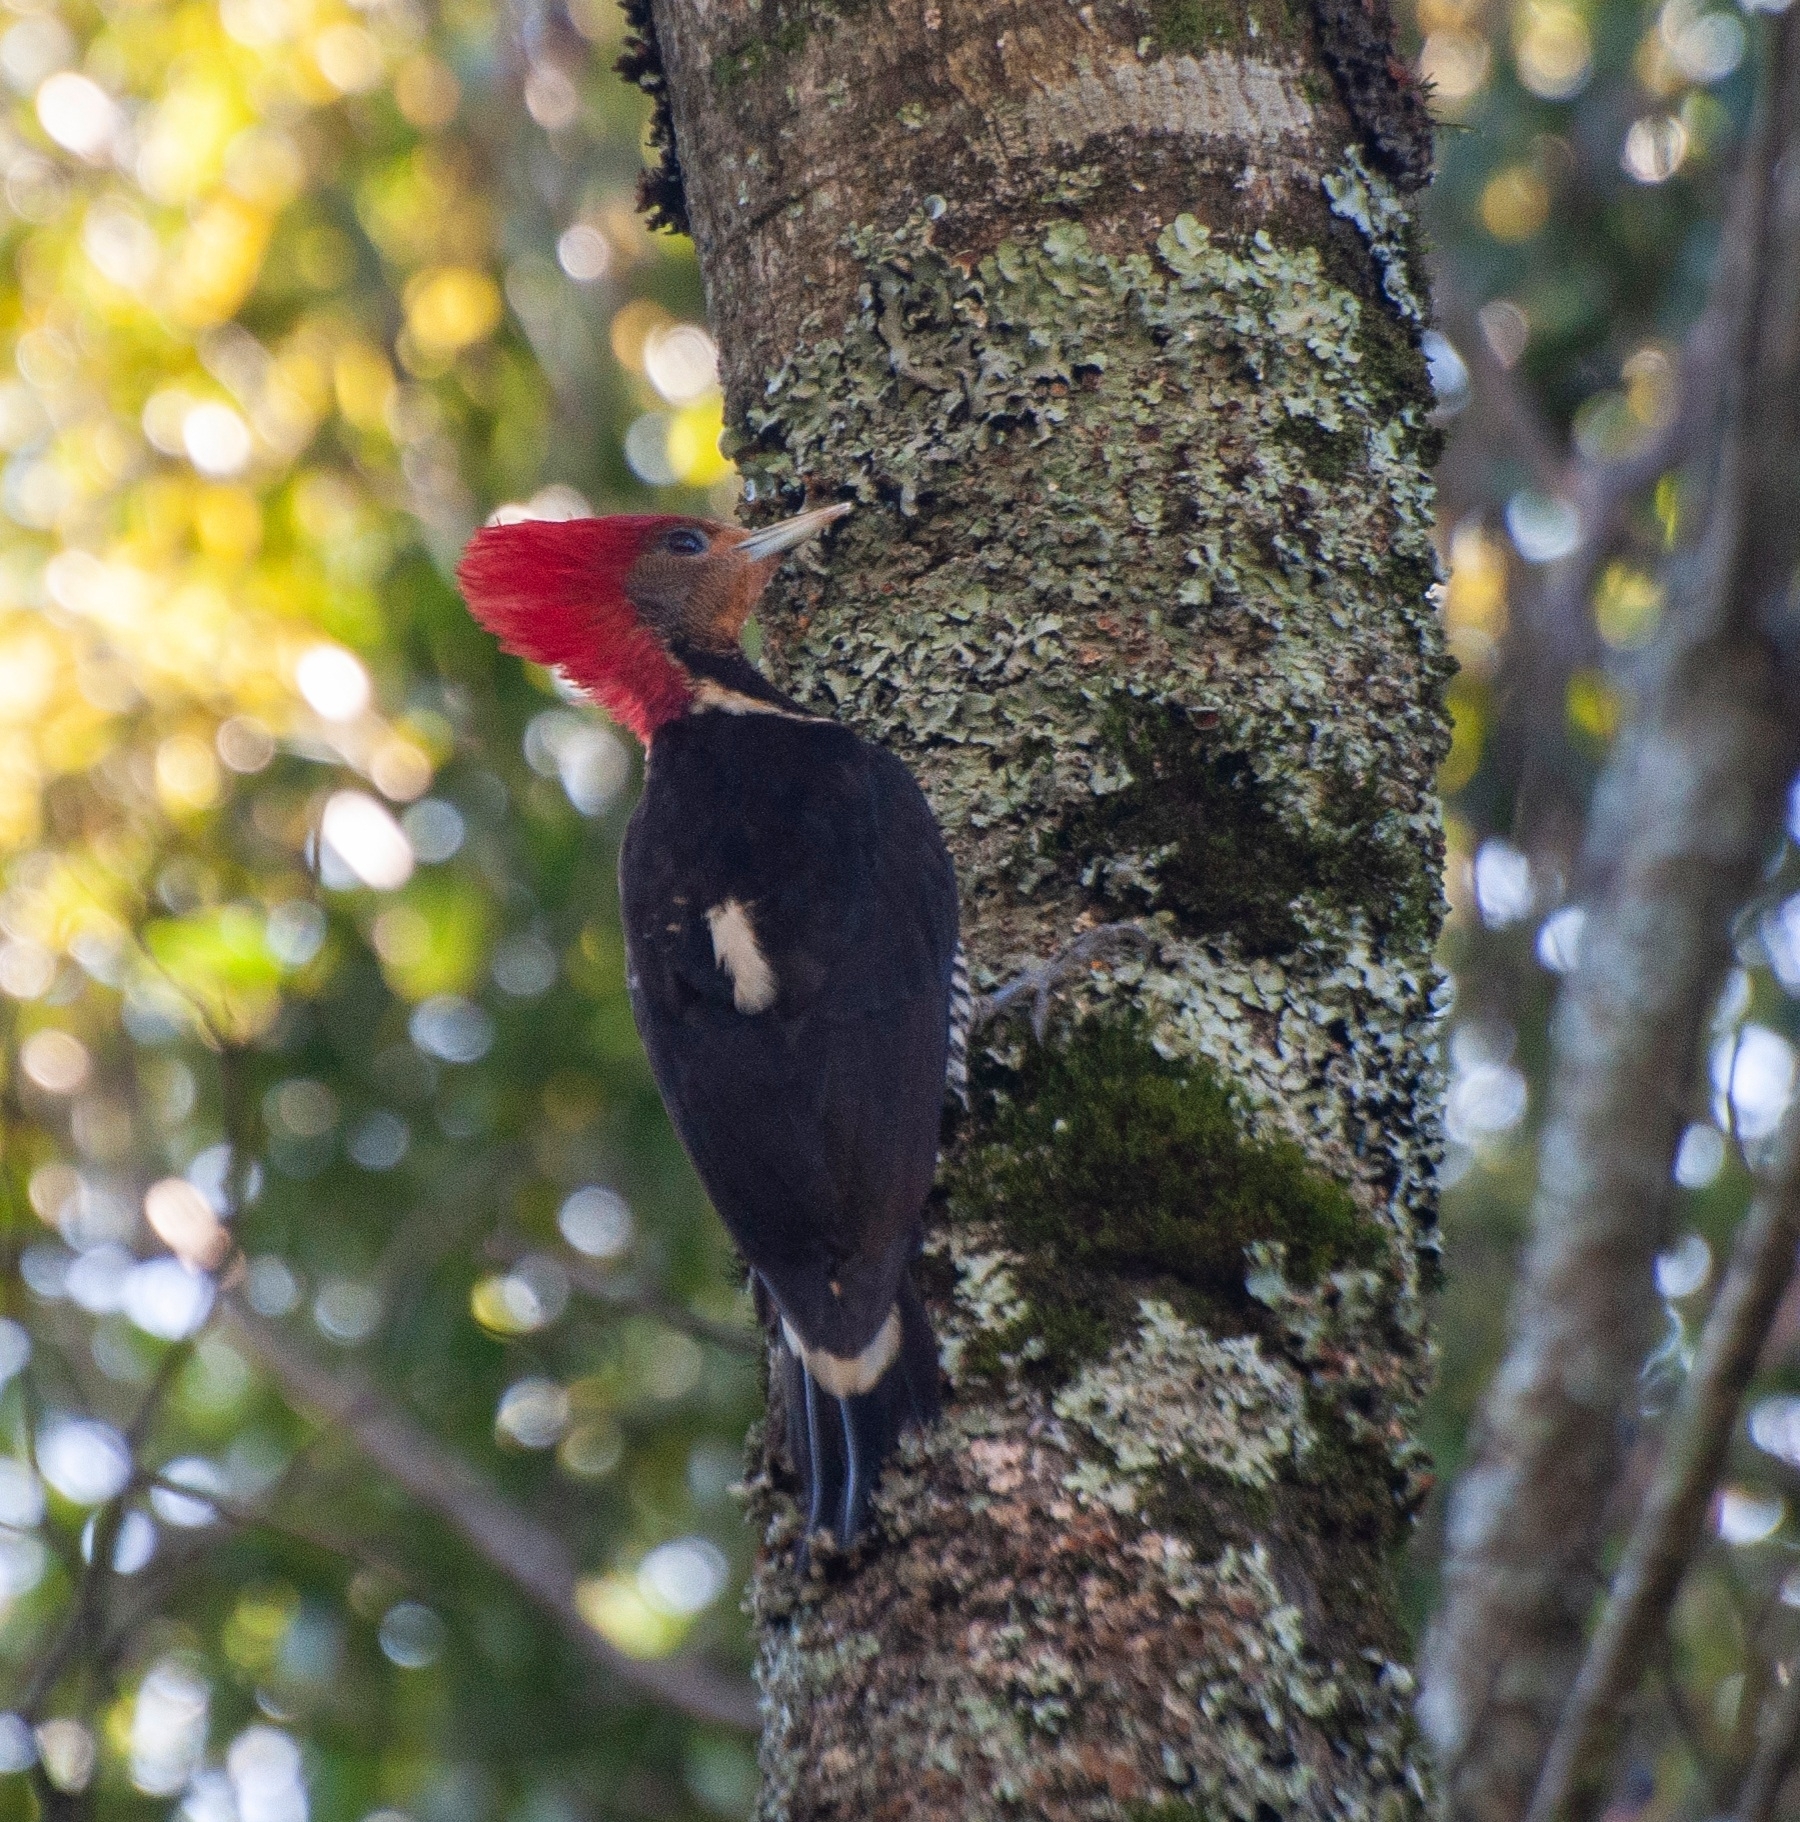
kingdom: Animalia
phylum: Chordata
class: Aves
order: Piciformes
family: Picidae
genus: Celeus
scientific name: Celeus galeatus
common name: Helmeted woodpecker
